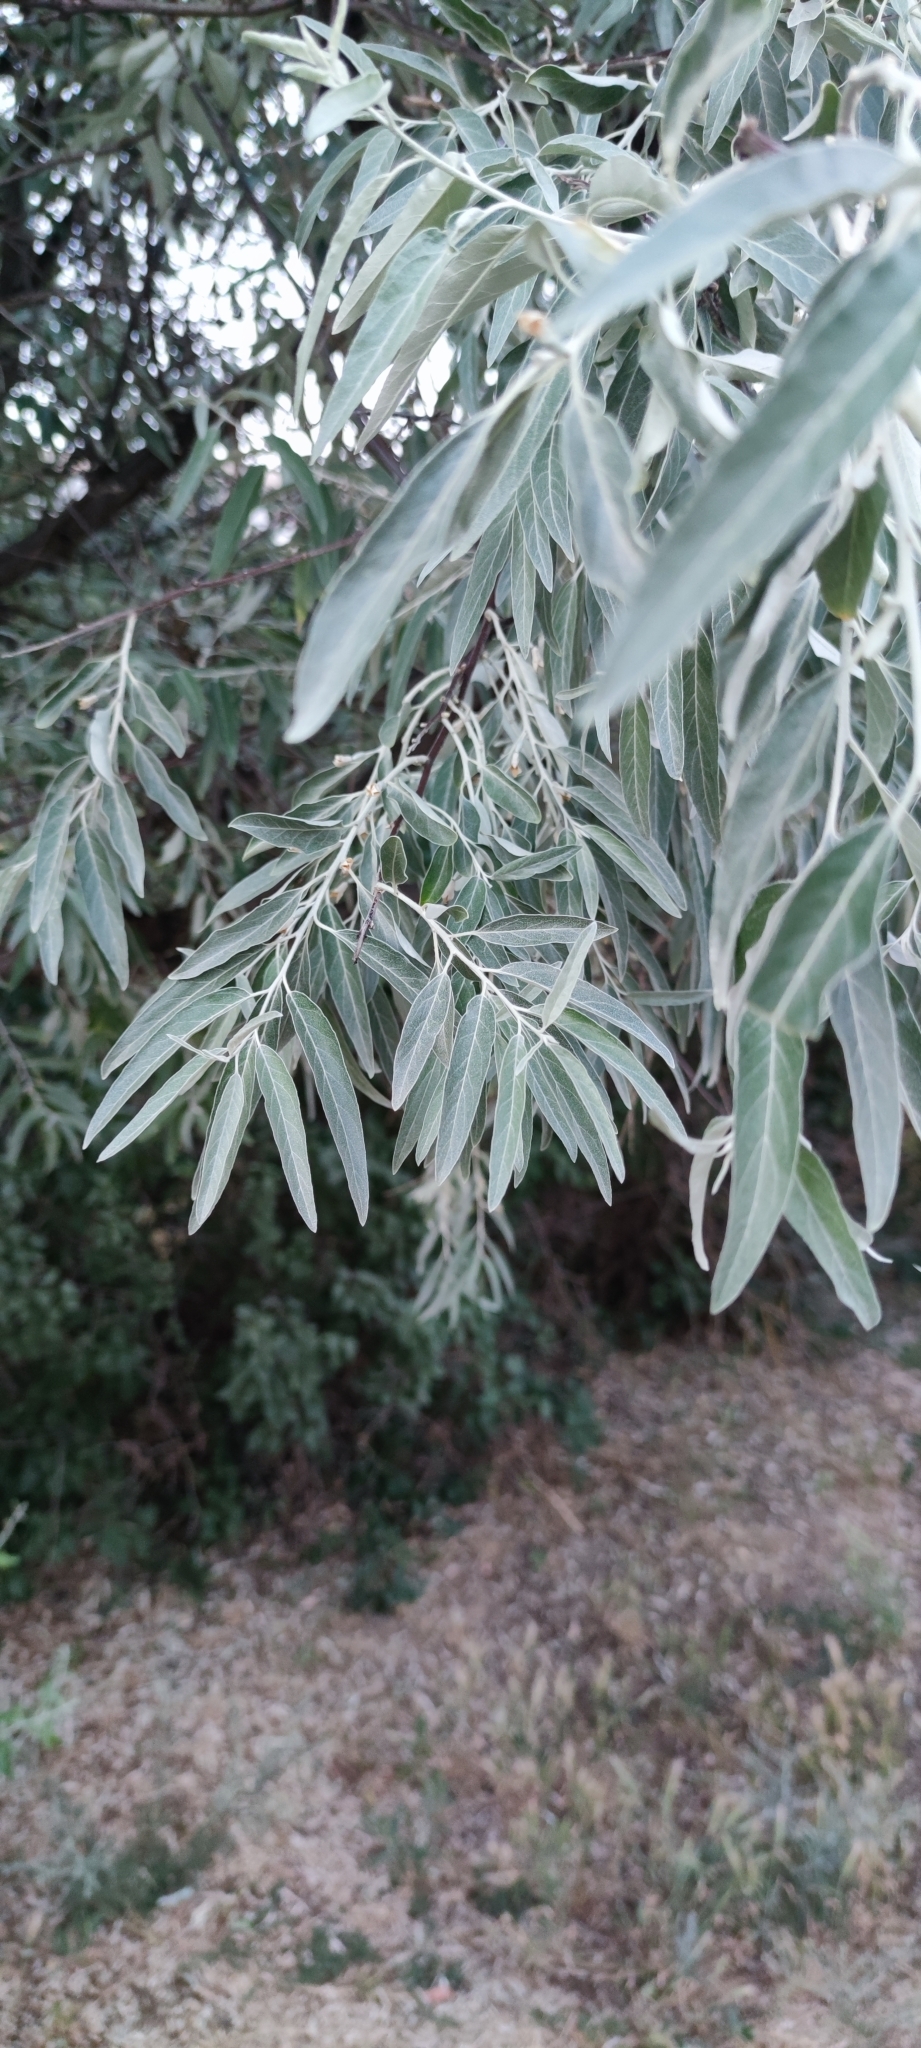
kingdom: Plantae
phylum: Tracheophyta
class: Magnoliopsida
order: Rosales
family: Elaeagnaceae
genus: Elaeagnus
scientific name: Elaeagnus angustifolia
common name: Russian olive
